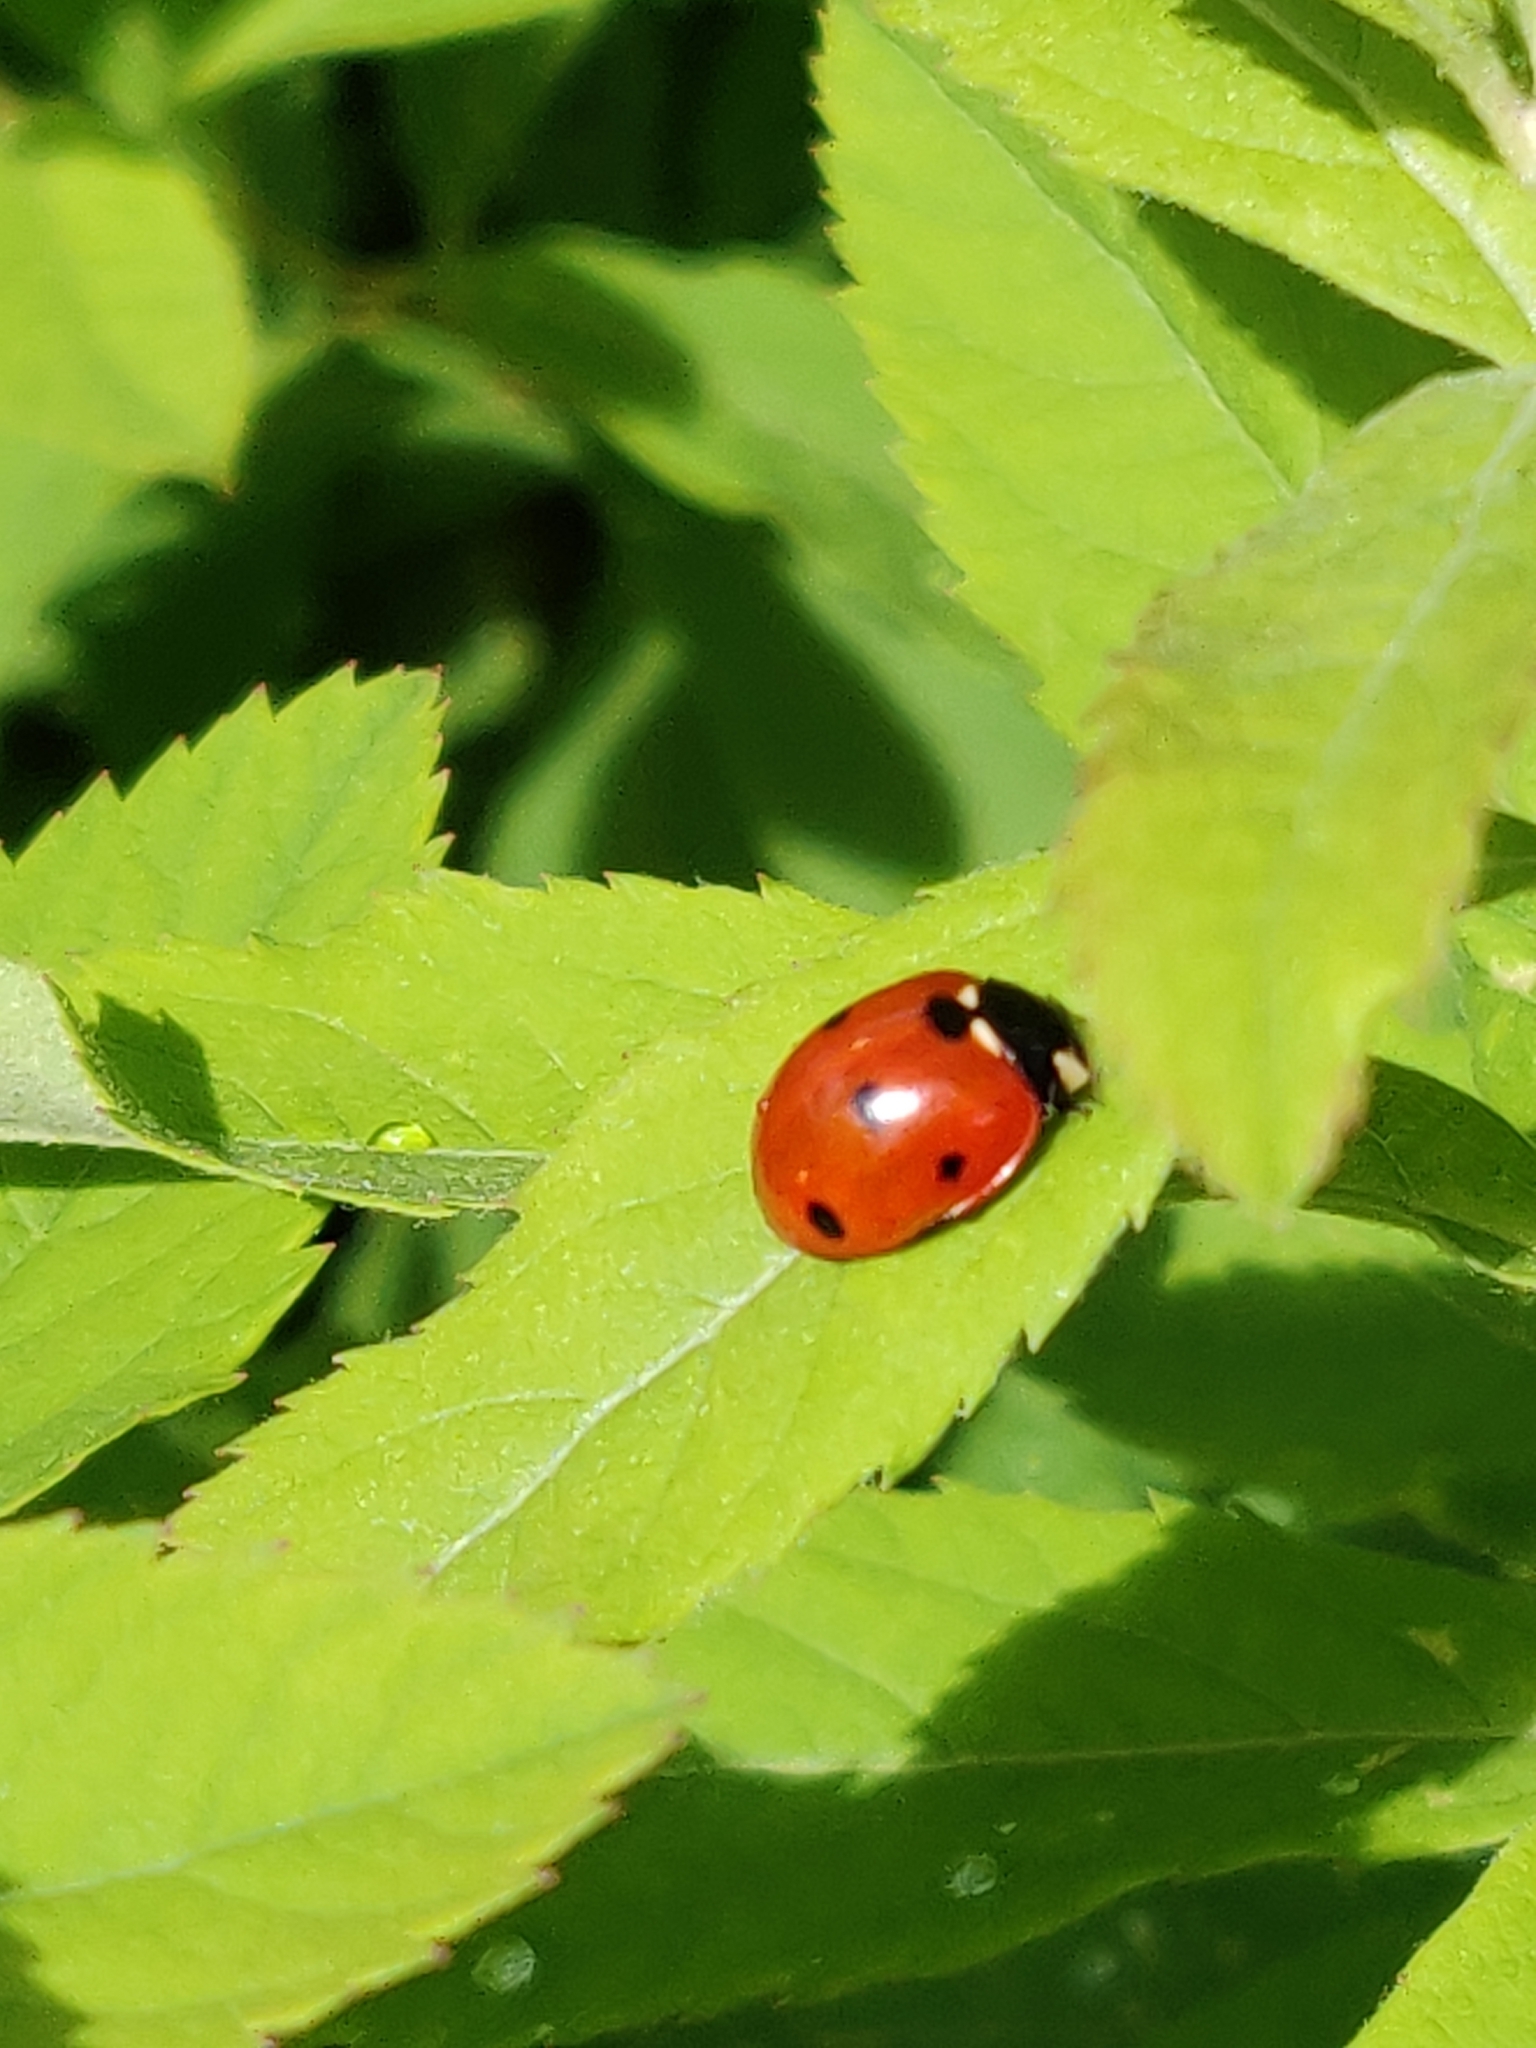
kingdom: Animalia
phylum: Arthropoda
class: Insecta
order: Coleoptera
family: Coccinellidae
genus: Coccinella
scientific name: Coccinella septempunctata
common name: Sevenspotted lady beetle
